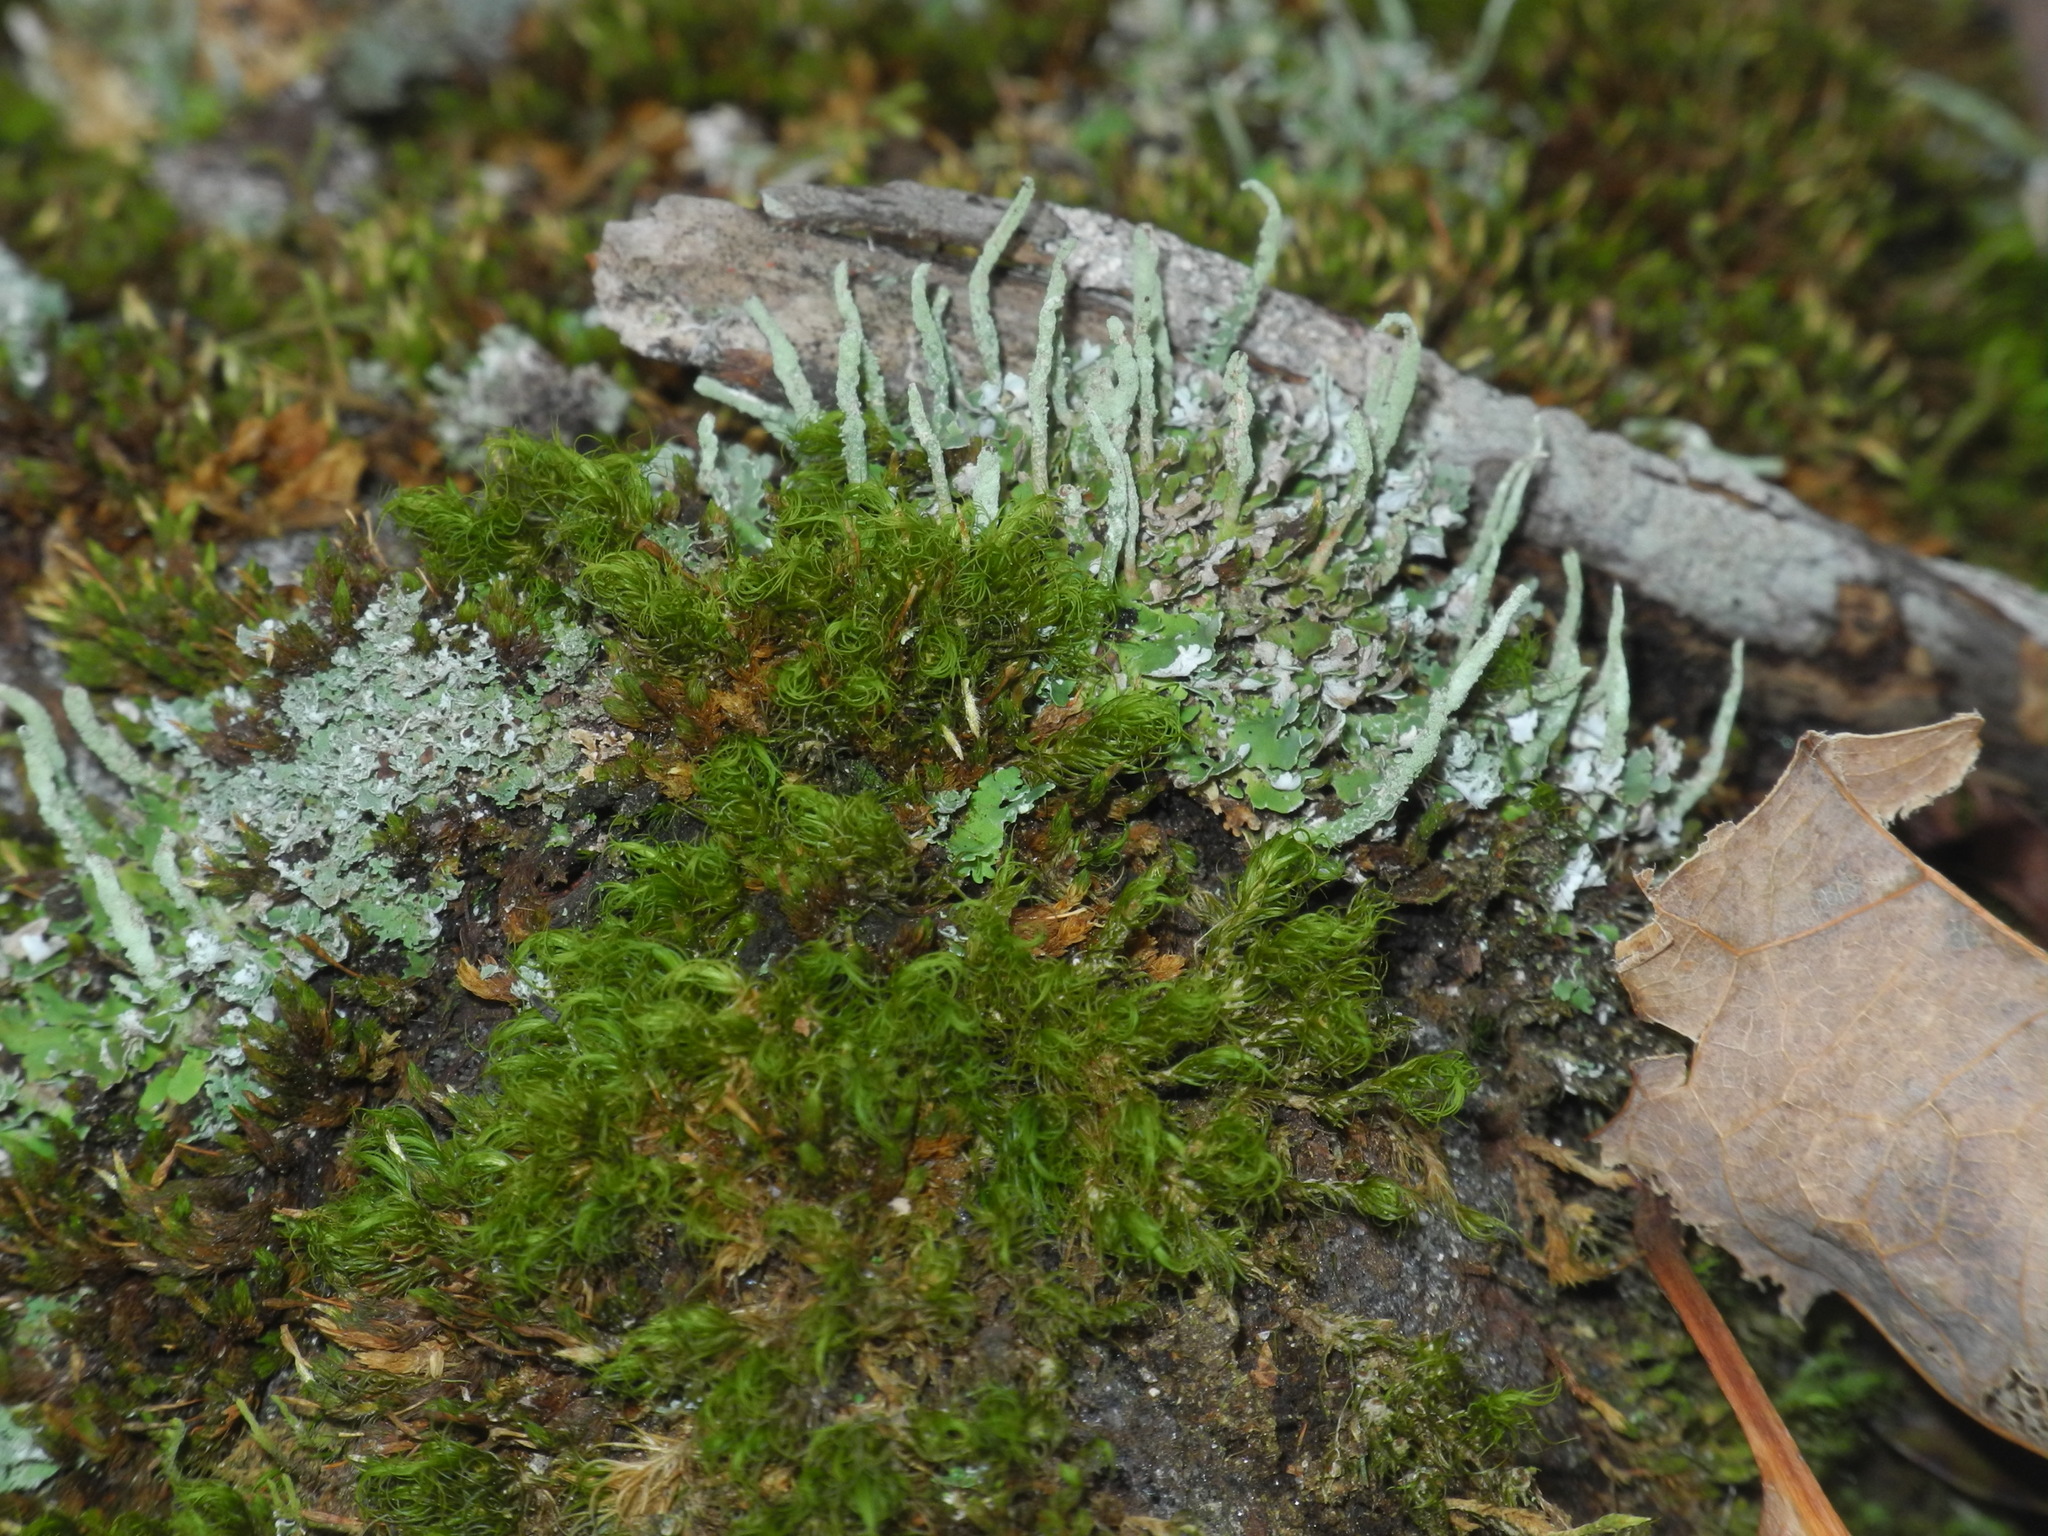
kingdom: Fungi
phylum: Ascomycota
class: Lecanoromycetes
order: Lecanorales
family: Cladoniaceae
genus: Cladonia
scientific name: Cladonia coniocraea
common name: Common powderhorn
